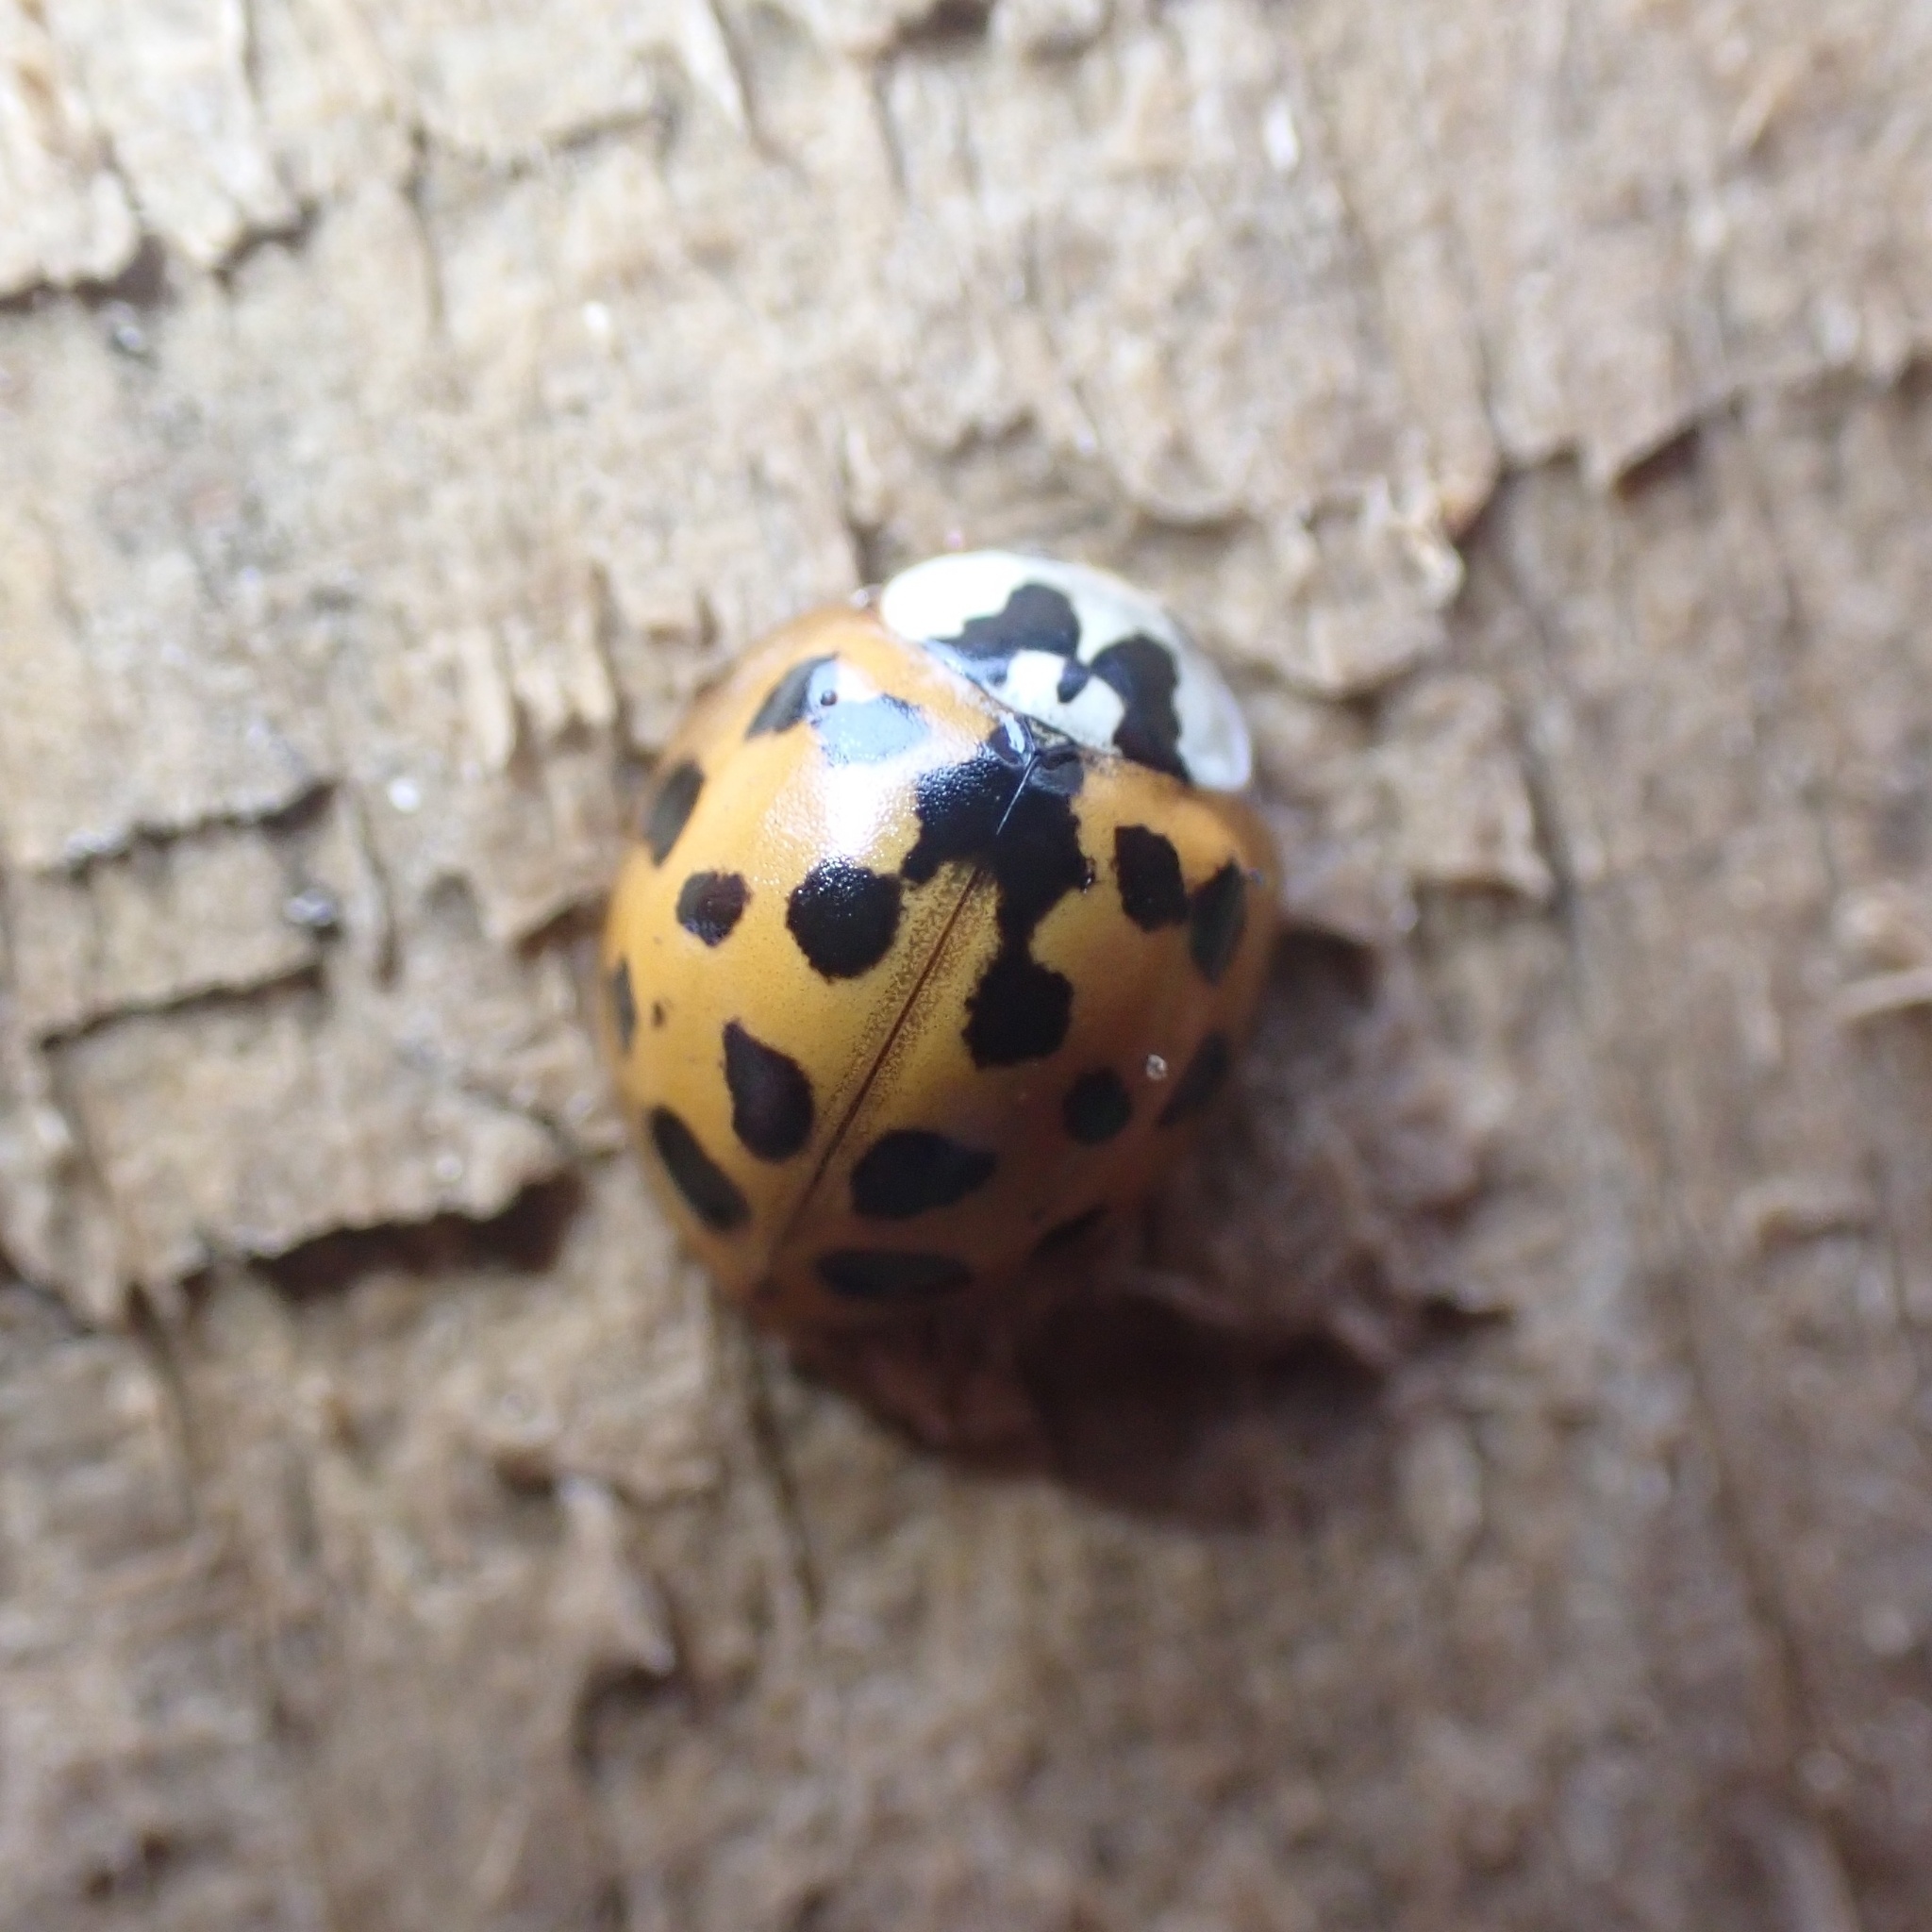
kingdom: Animalia
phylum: Arthropoda
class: Insecta
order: Coleoptera
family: Coccinellidae
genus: Harmonia
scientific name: Harmonia axyridis
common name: Harlequin ladybird
